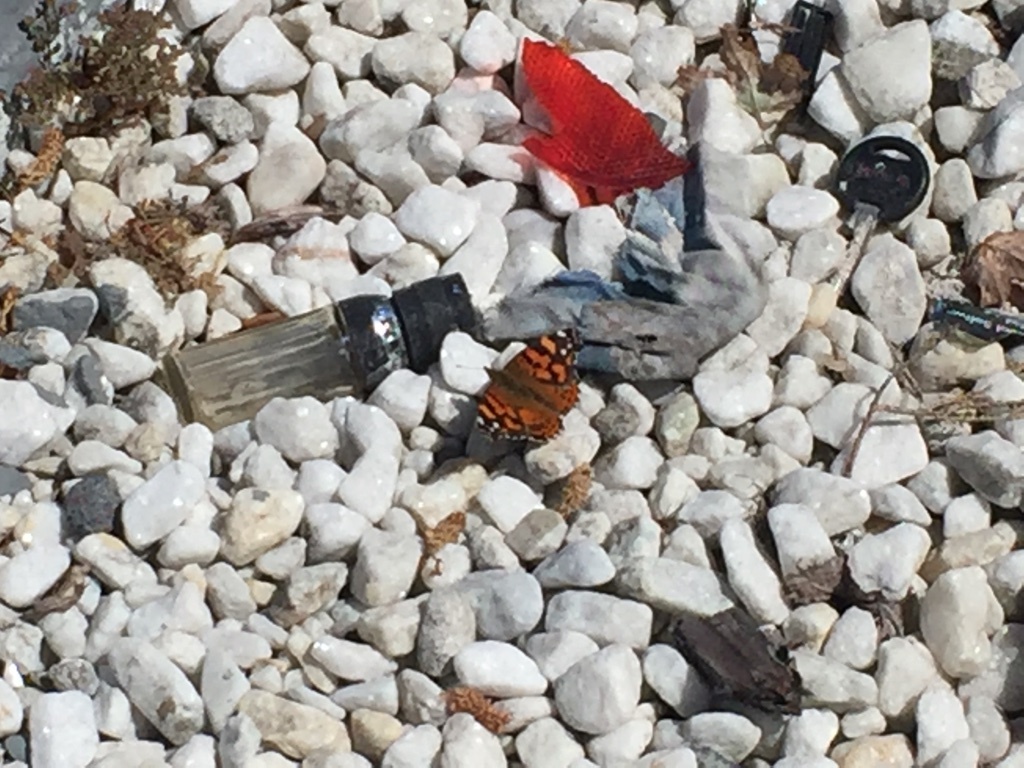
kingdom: Animalia
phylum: Arthropoda
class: Insecta
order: Lepidoptera
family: Nymphalidae
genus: Vanessa
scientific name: Vanessa annabella
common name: West coast lady
